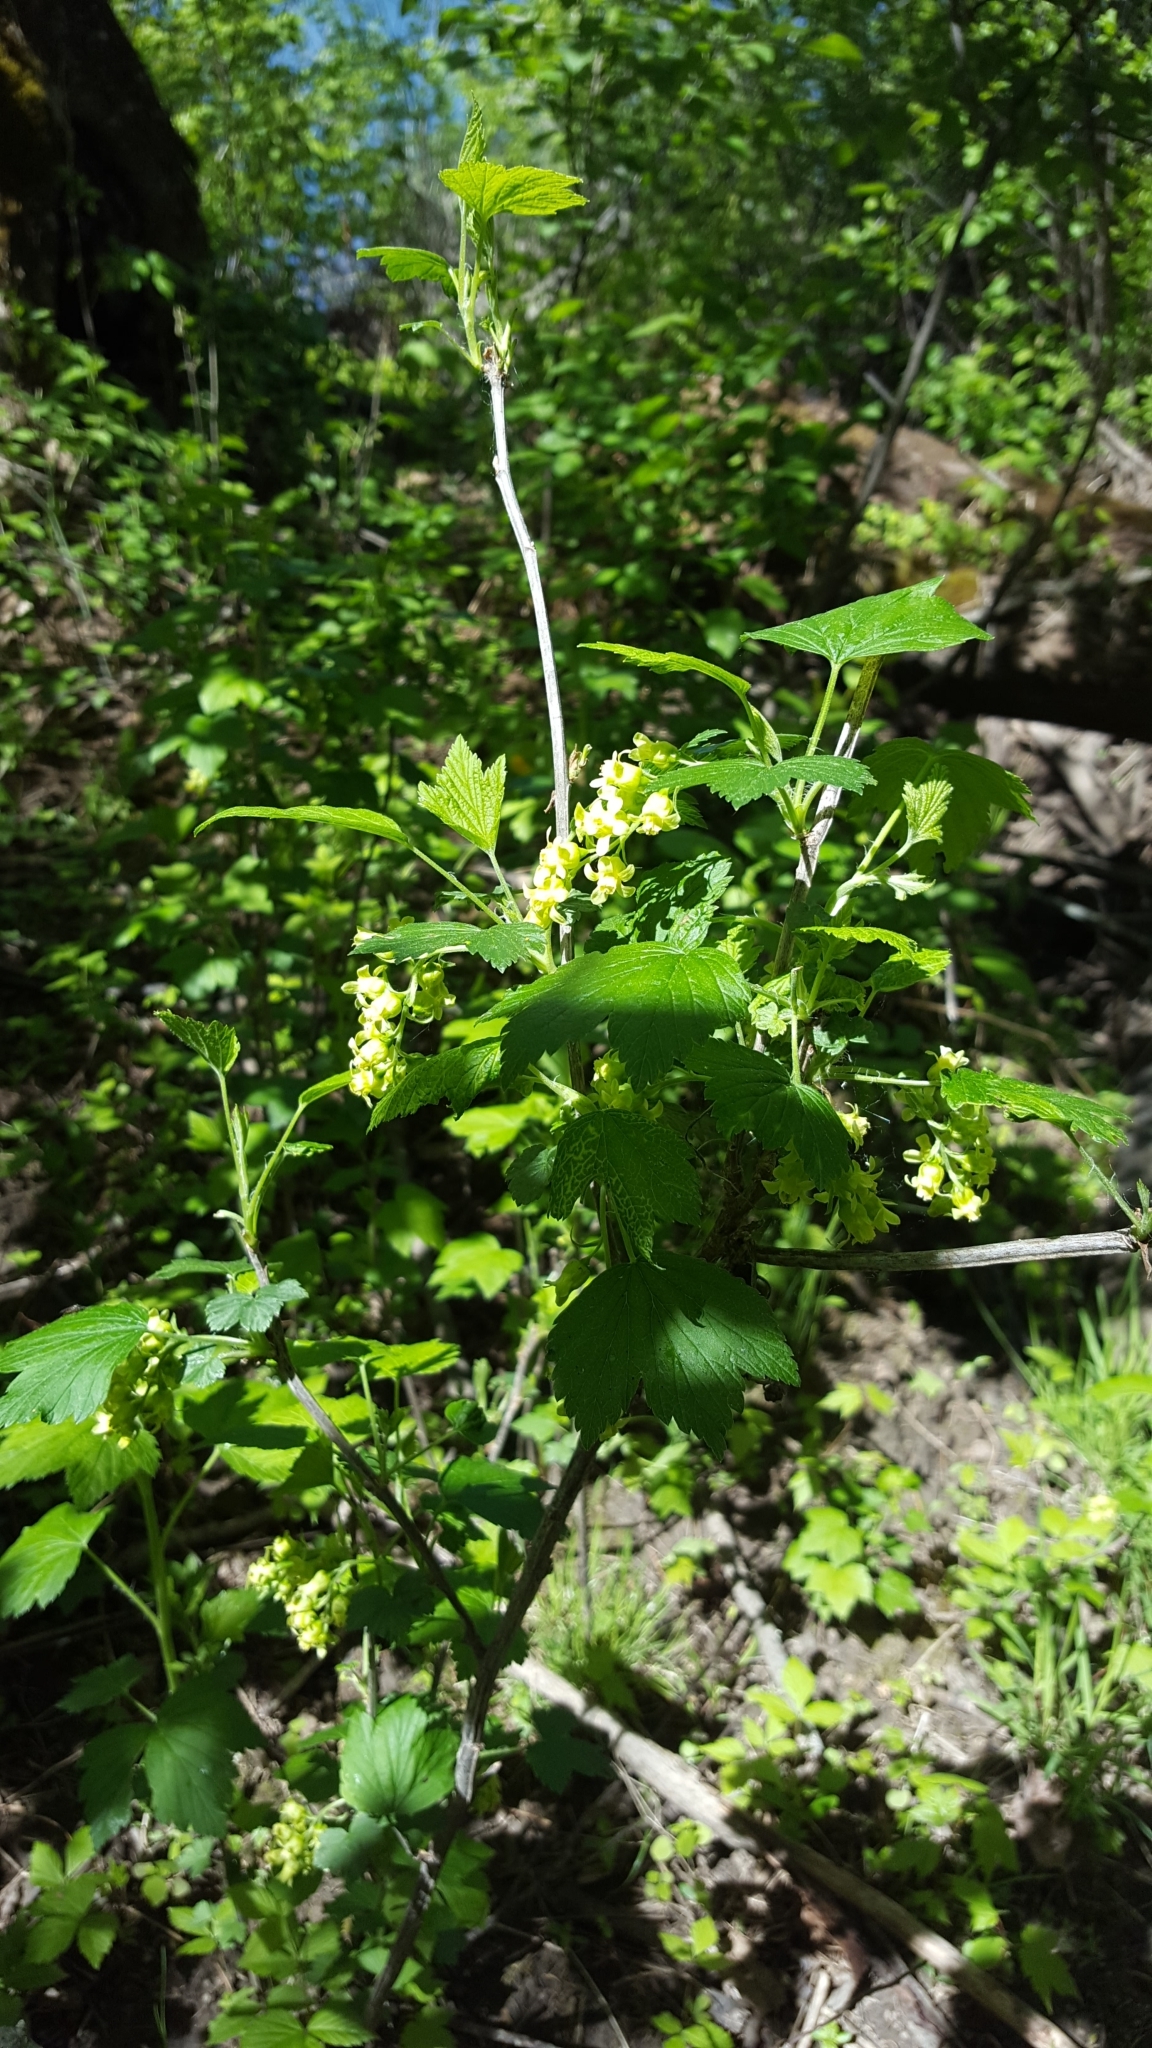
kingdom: Plantae
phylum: Tracheophyta
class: Magnoliopsida
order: Saxifragales
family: Grossulariaceae
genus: Ribes
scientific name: Ribes americanum
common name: American black currant
